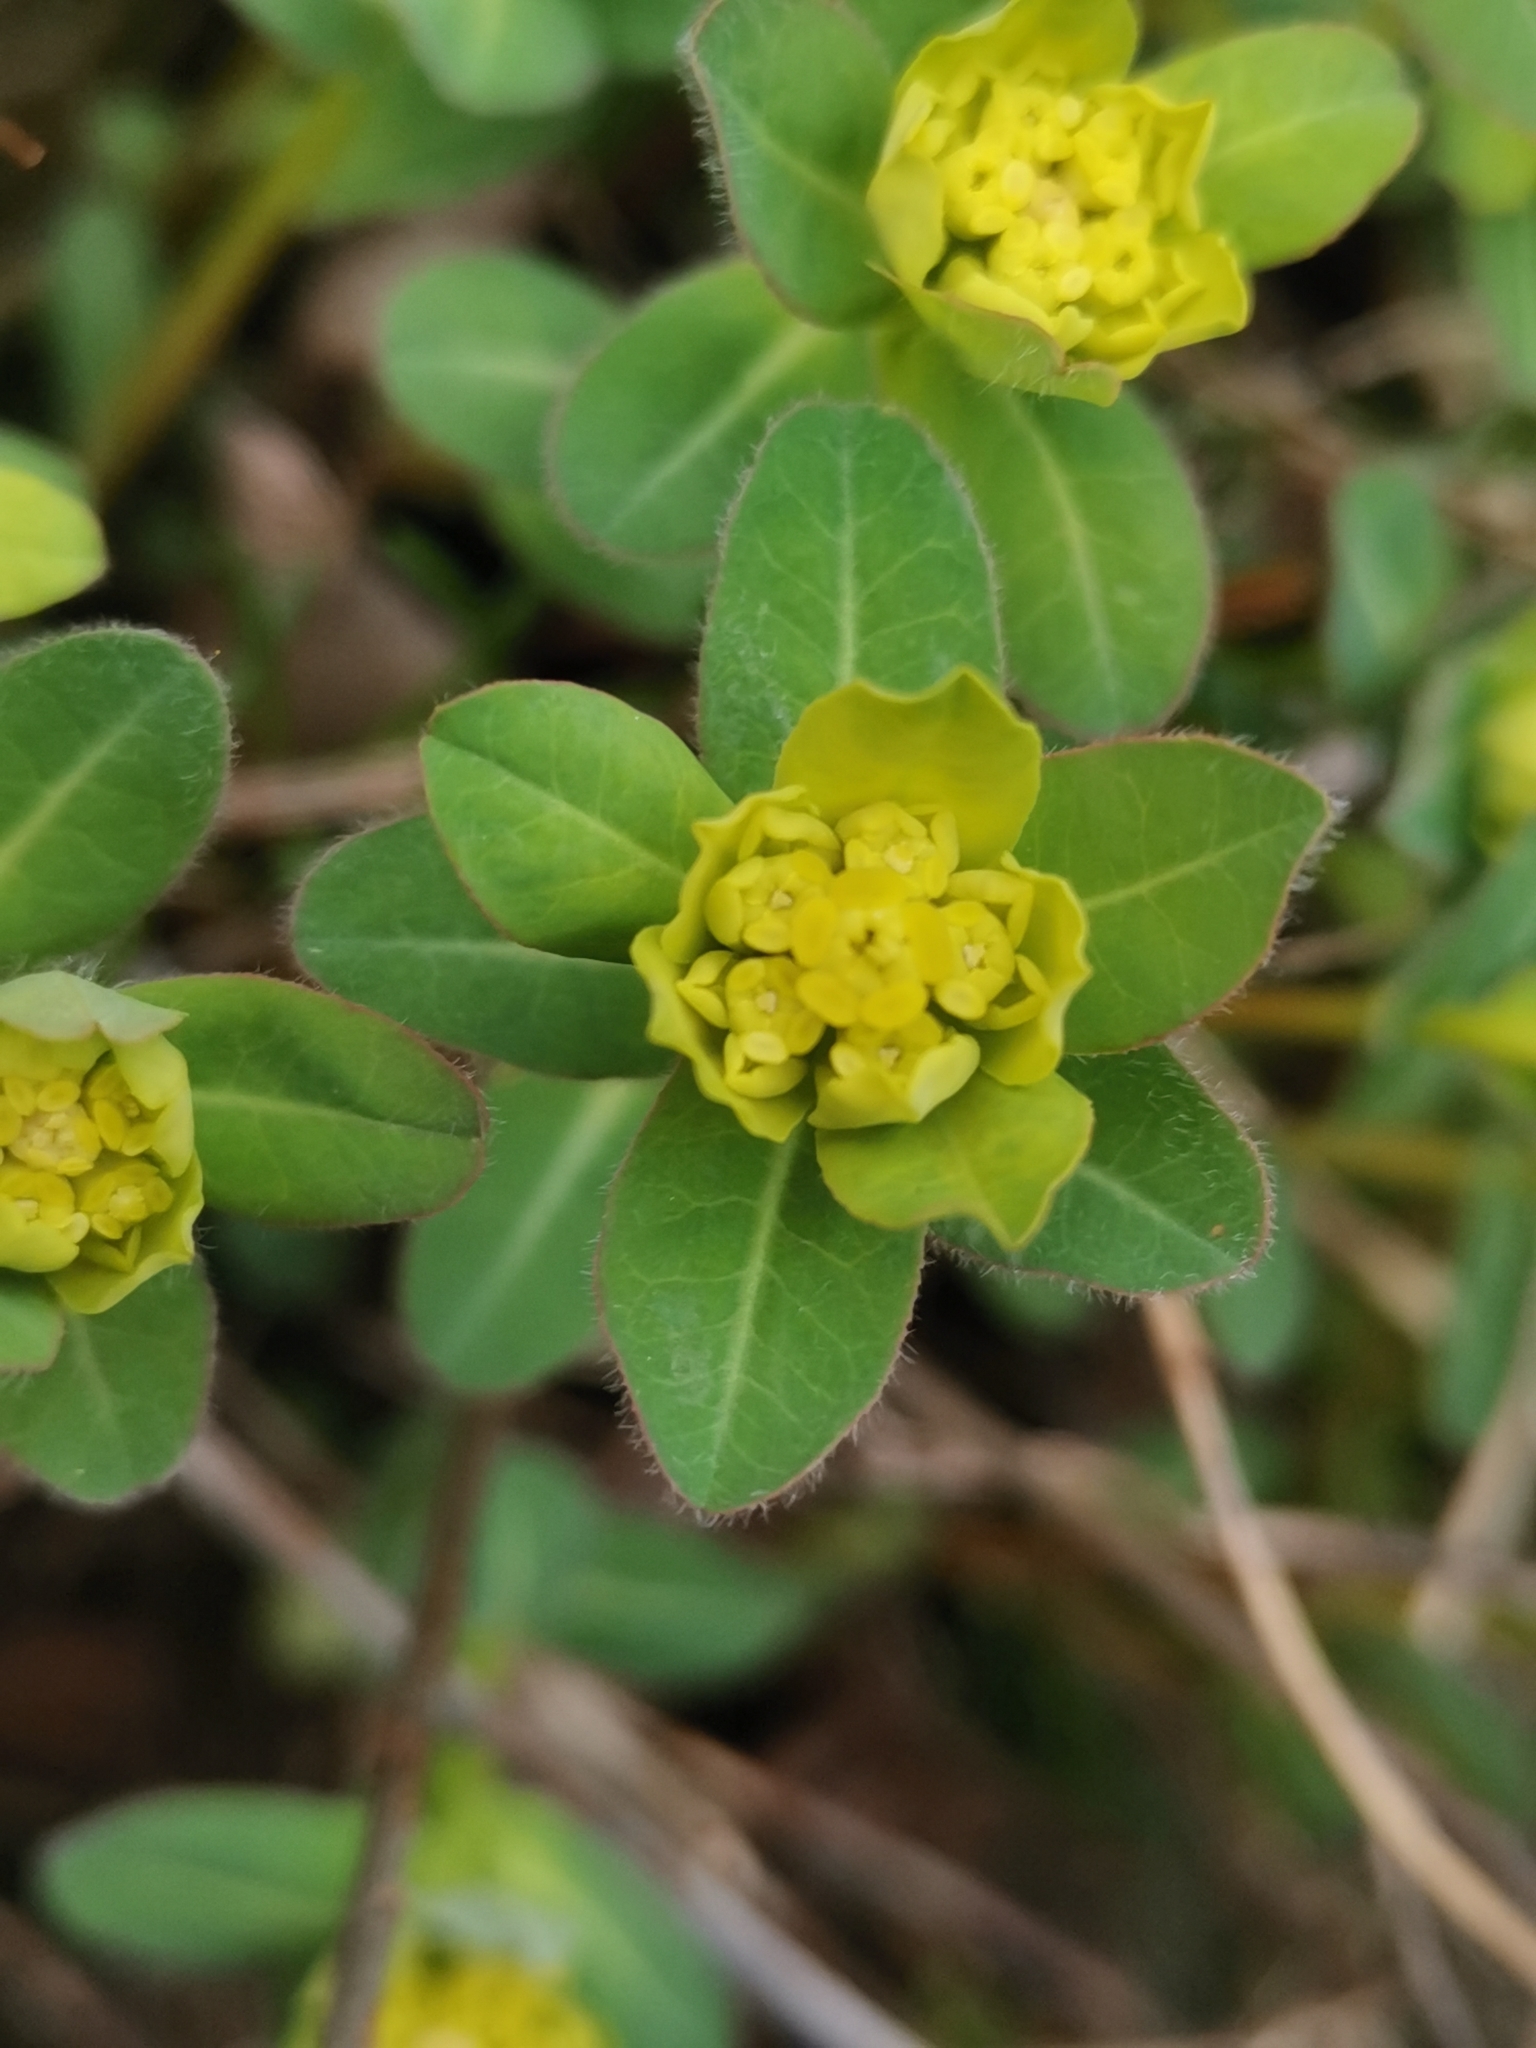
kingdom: Plantae
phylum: Tracheophyta
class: Magnoliopsida
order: Malpighiales
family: Euphorbiaceae
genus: Euphorbia
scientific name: Euphorbia verrucosa
